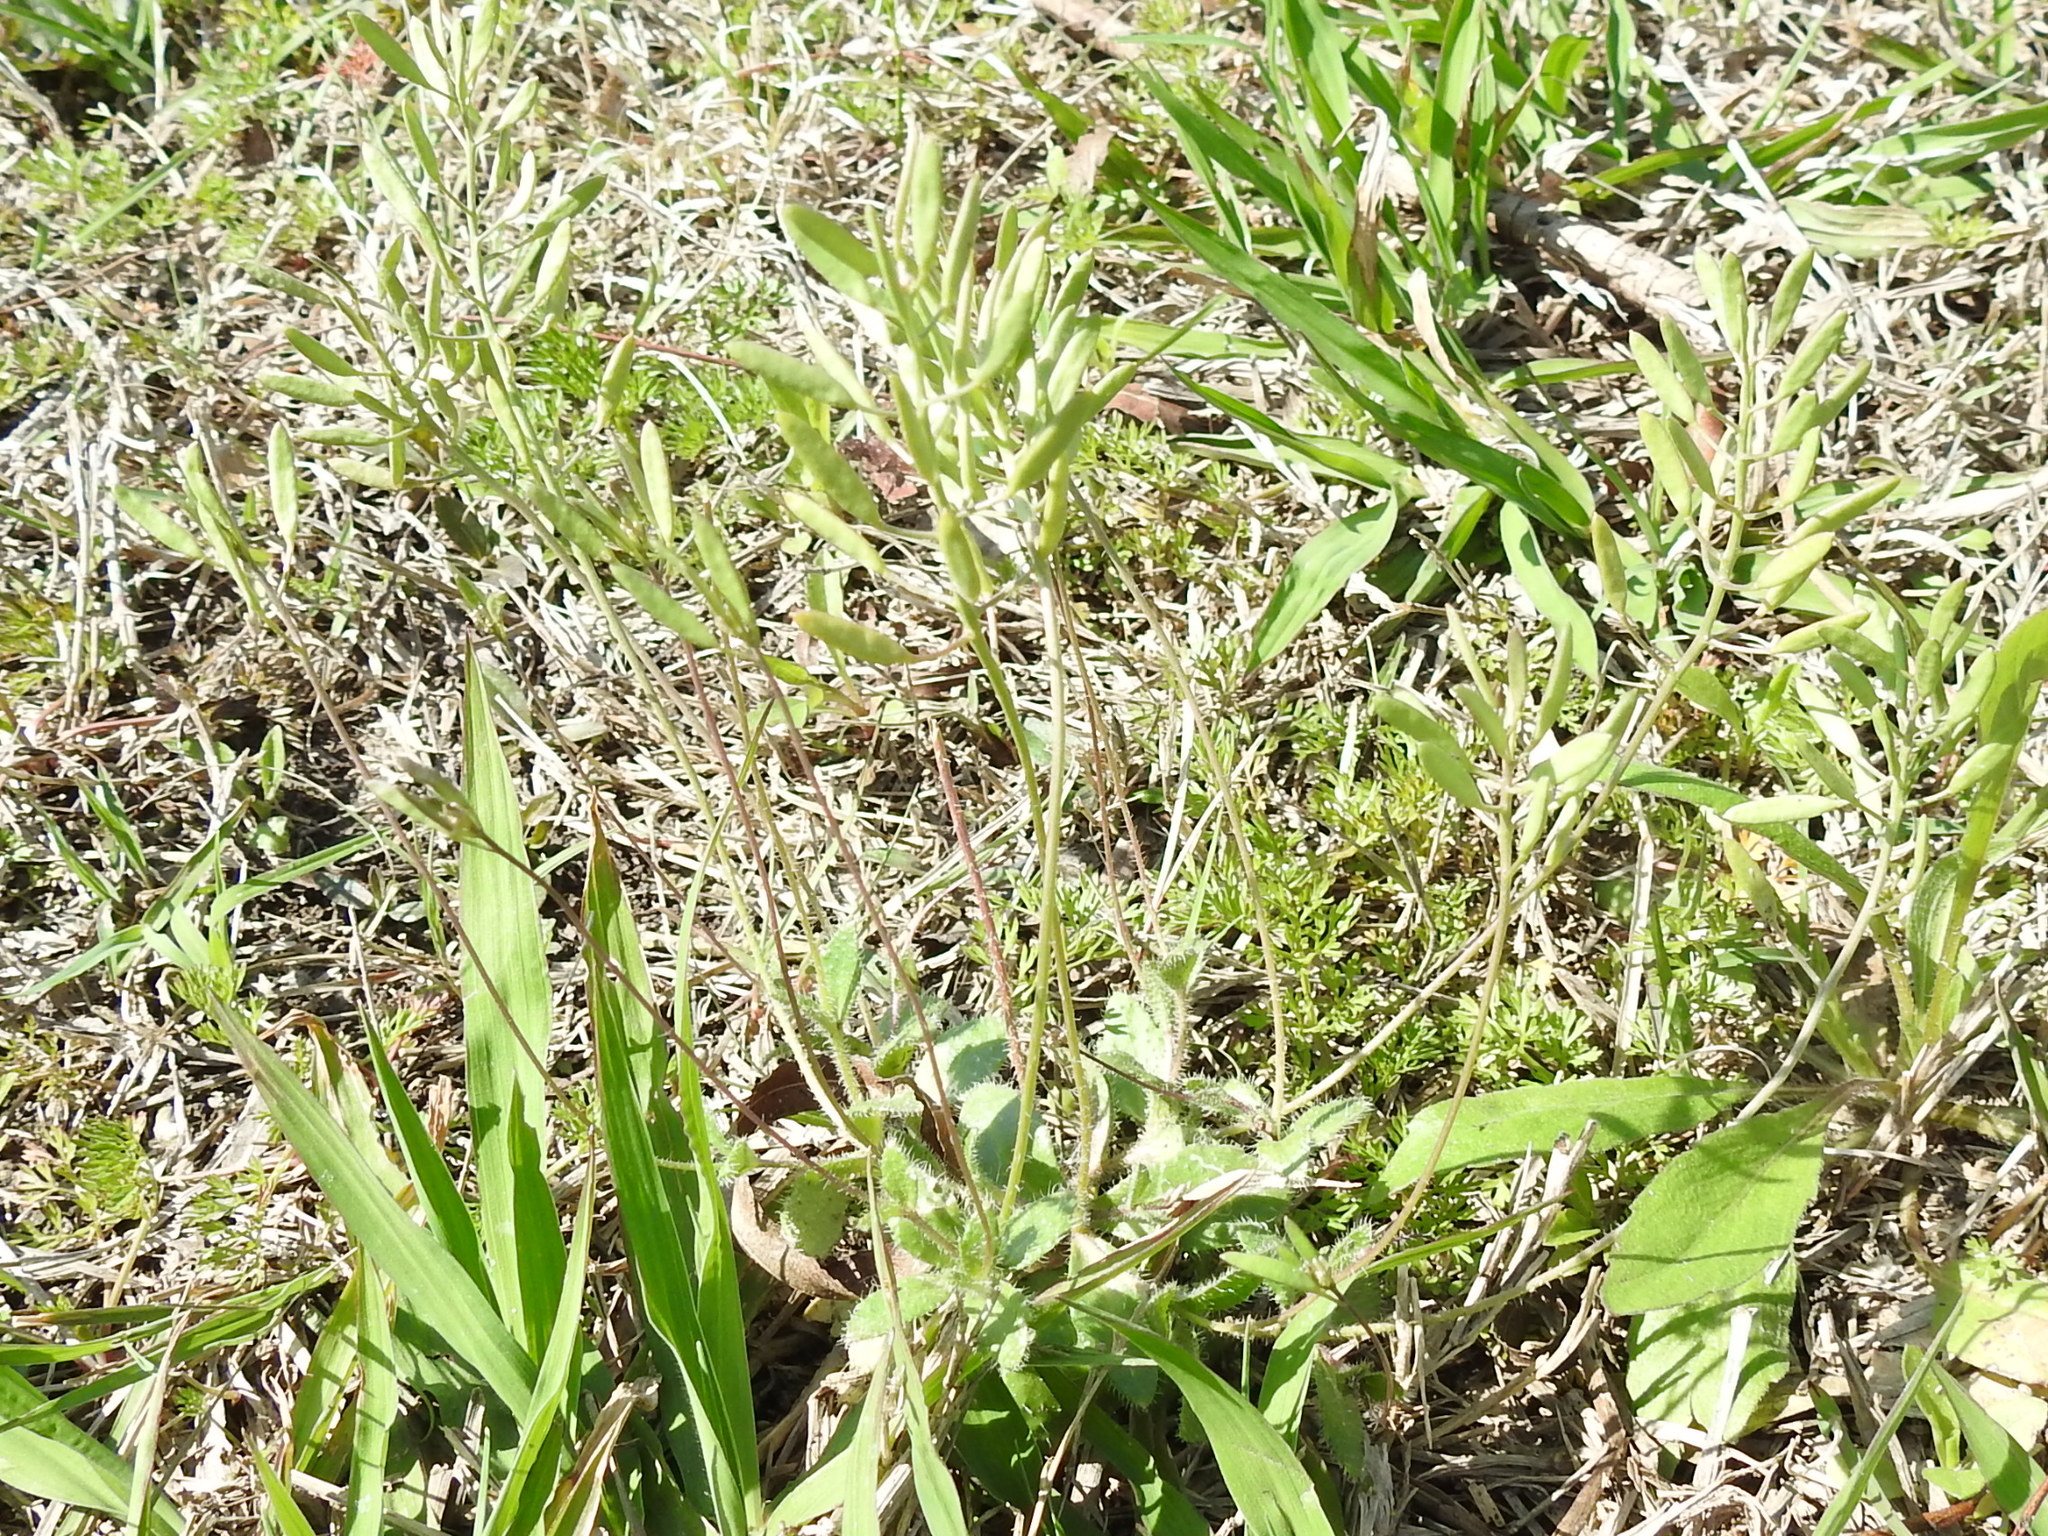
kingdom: Plantae
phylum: Tracheophyta
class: Magnoliopsida
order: Brassicales
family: Brassicaceae
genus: Tomostima
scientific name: Tomostima reptans
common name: Carolina draba
